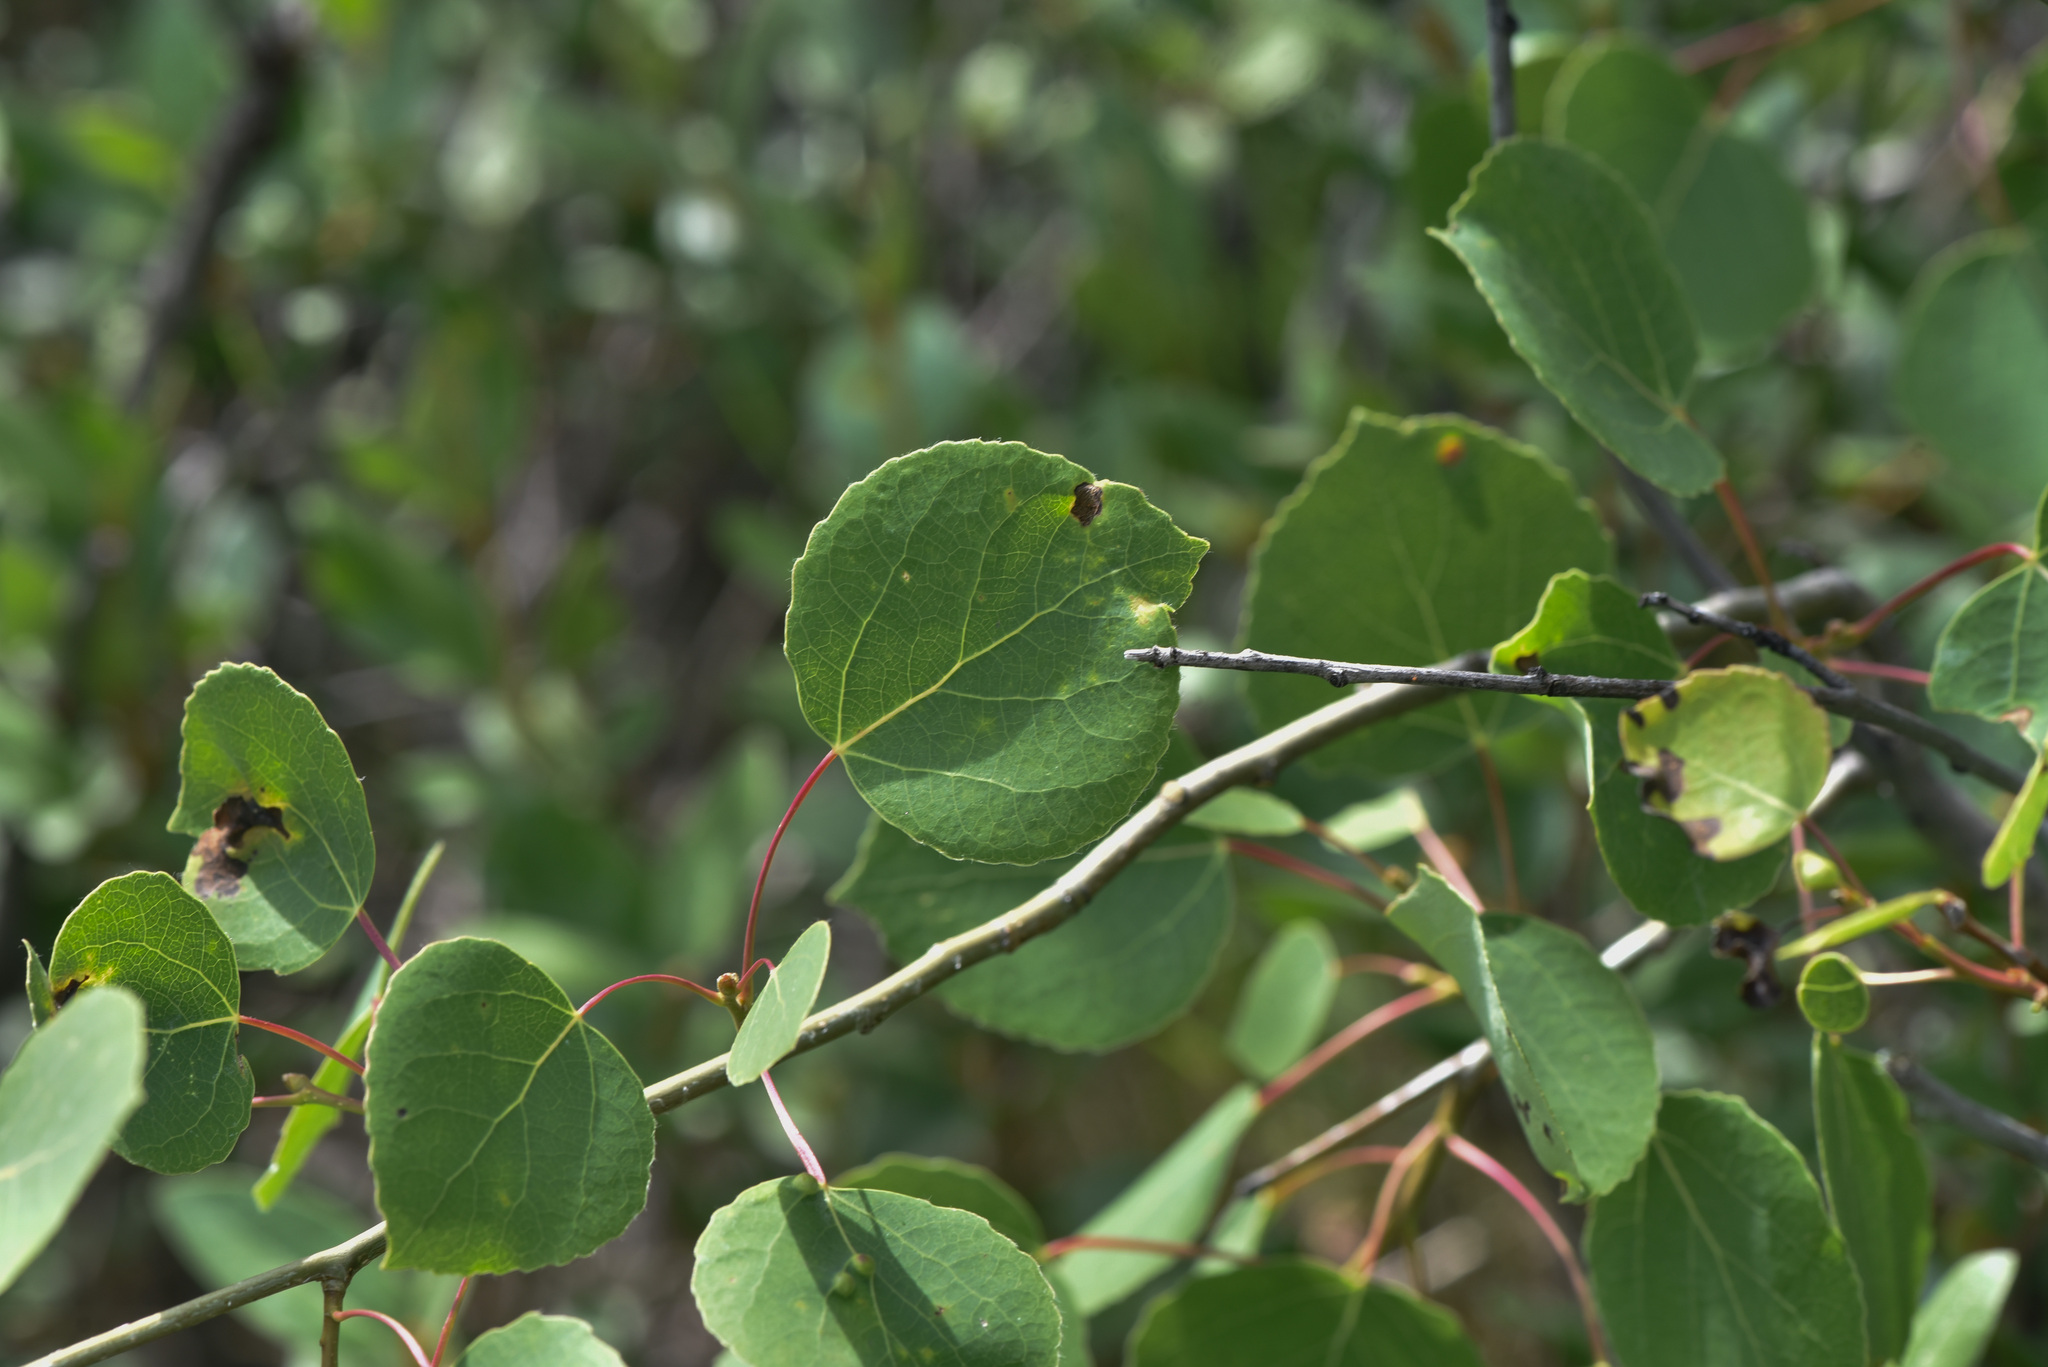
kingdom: Plantae
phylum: Tracheophyta
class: Magnoliopsida
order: Malpighiales
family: Salicaceae
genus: Populus
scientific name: Populus tremuloides
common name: Quaking aspen
